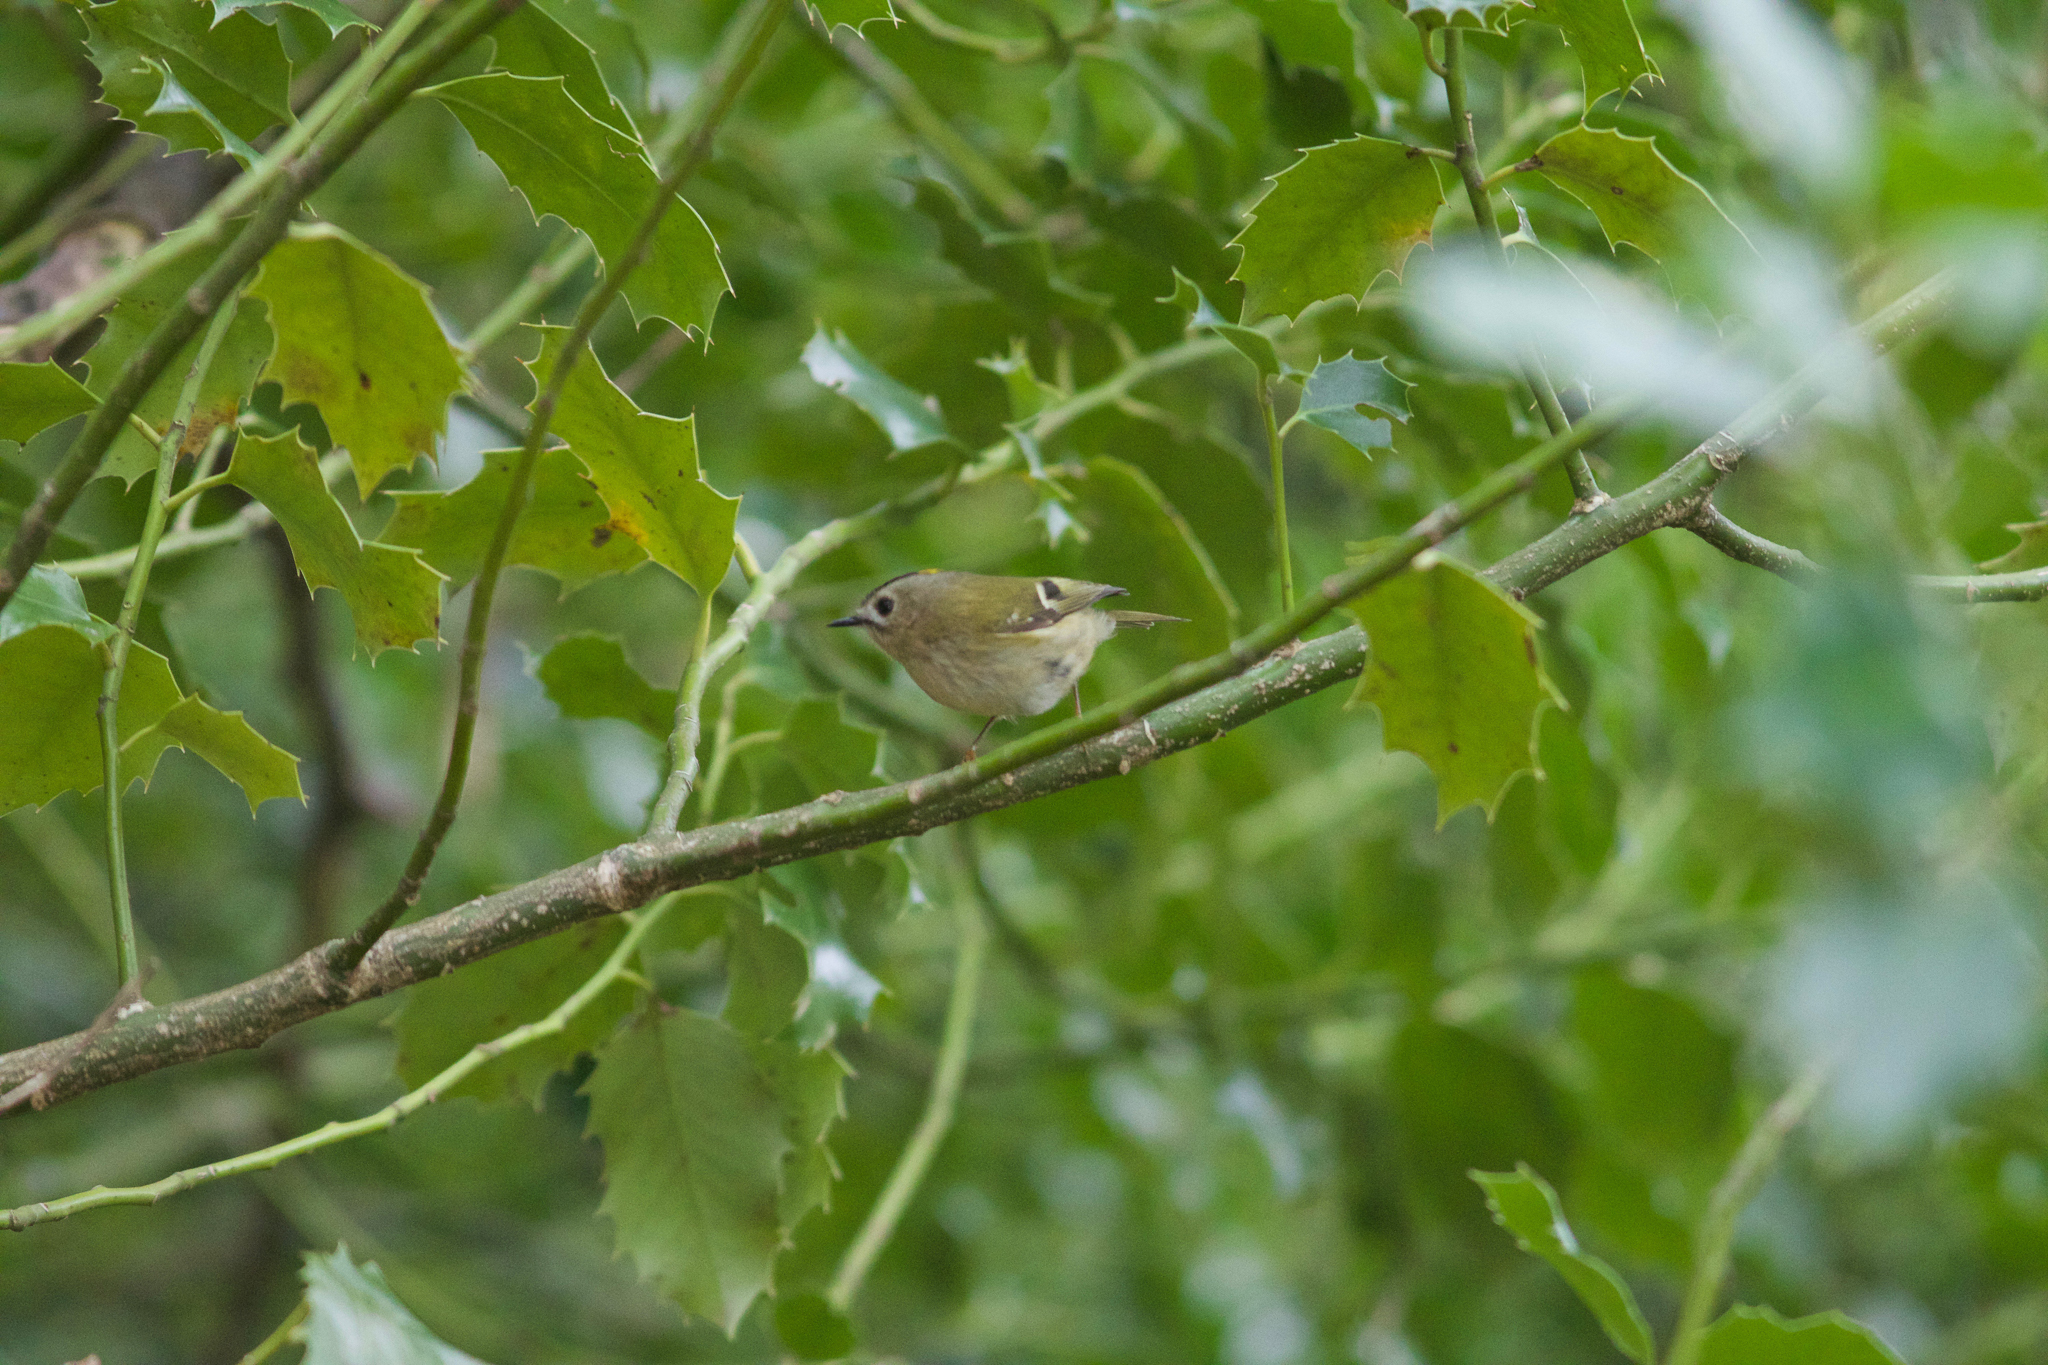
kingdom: Animalia
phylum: Chordata
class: Aves
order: Passeriformes
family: Regulidae
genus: Regulus
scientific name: Regulus regulus
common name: Goldcrest
